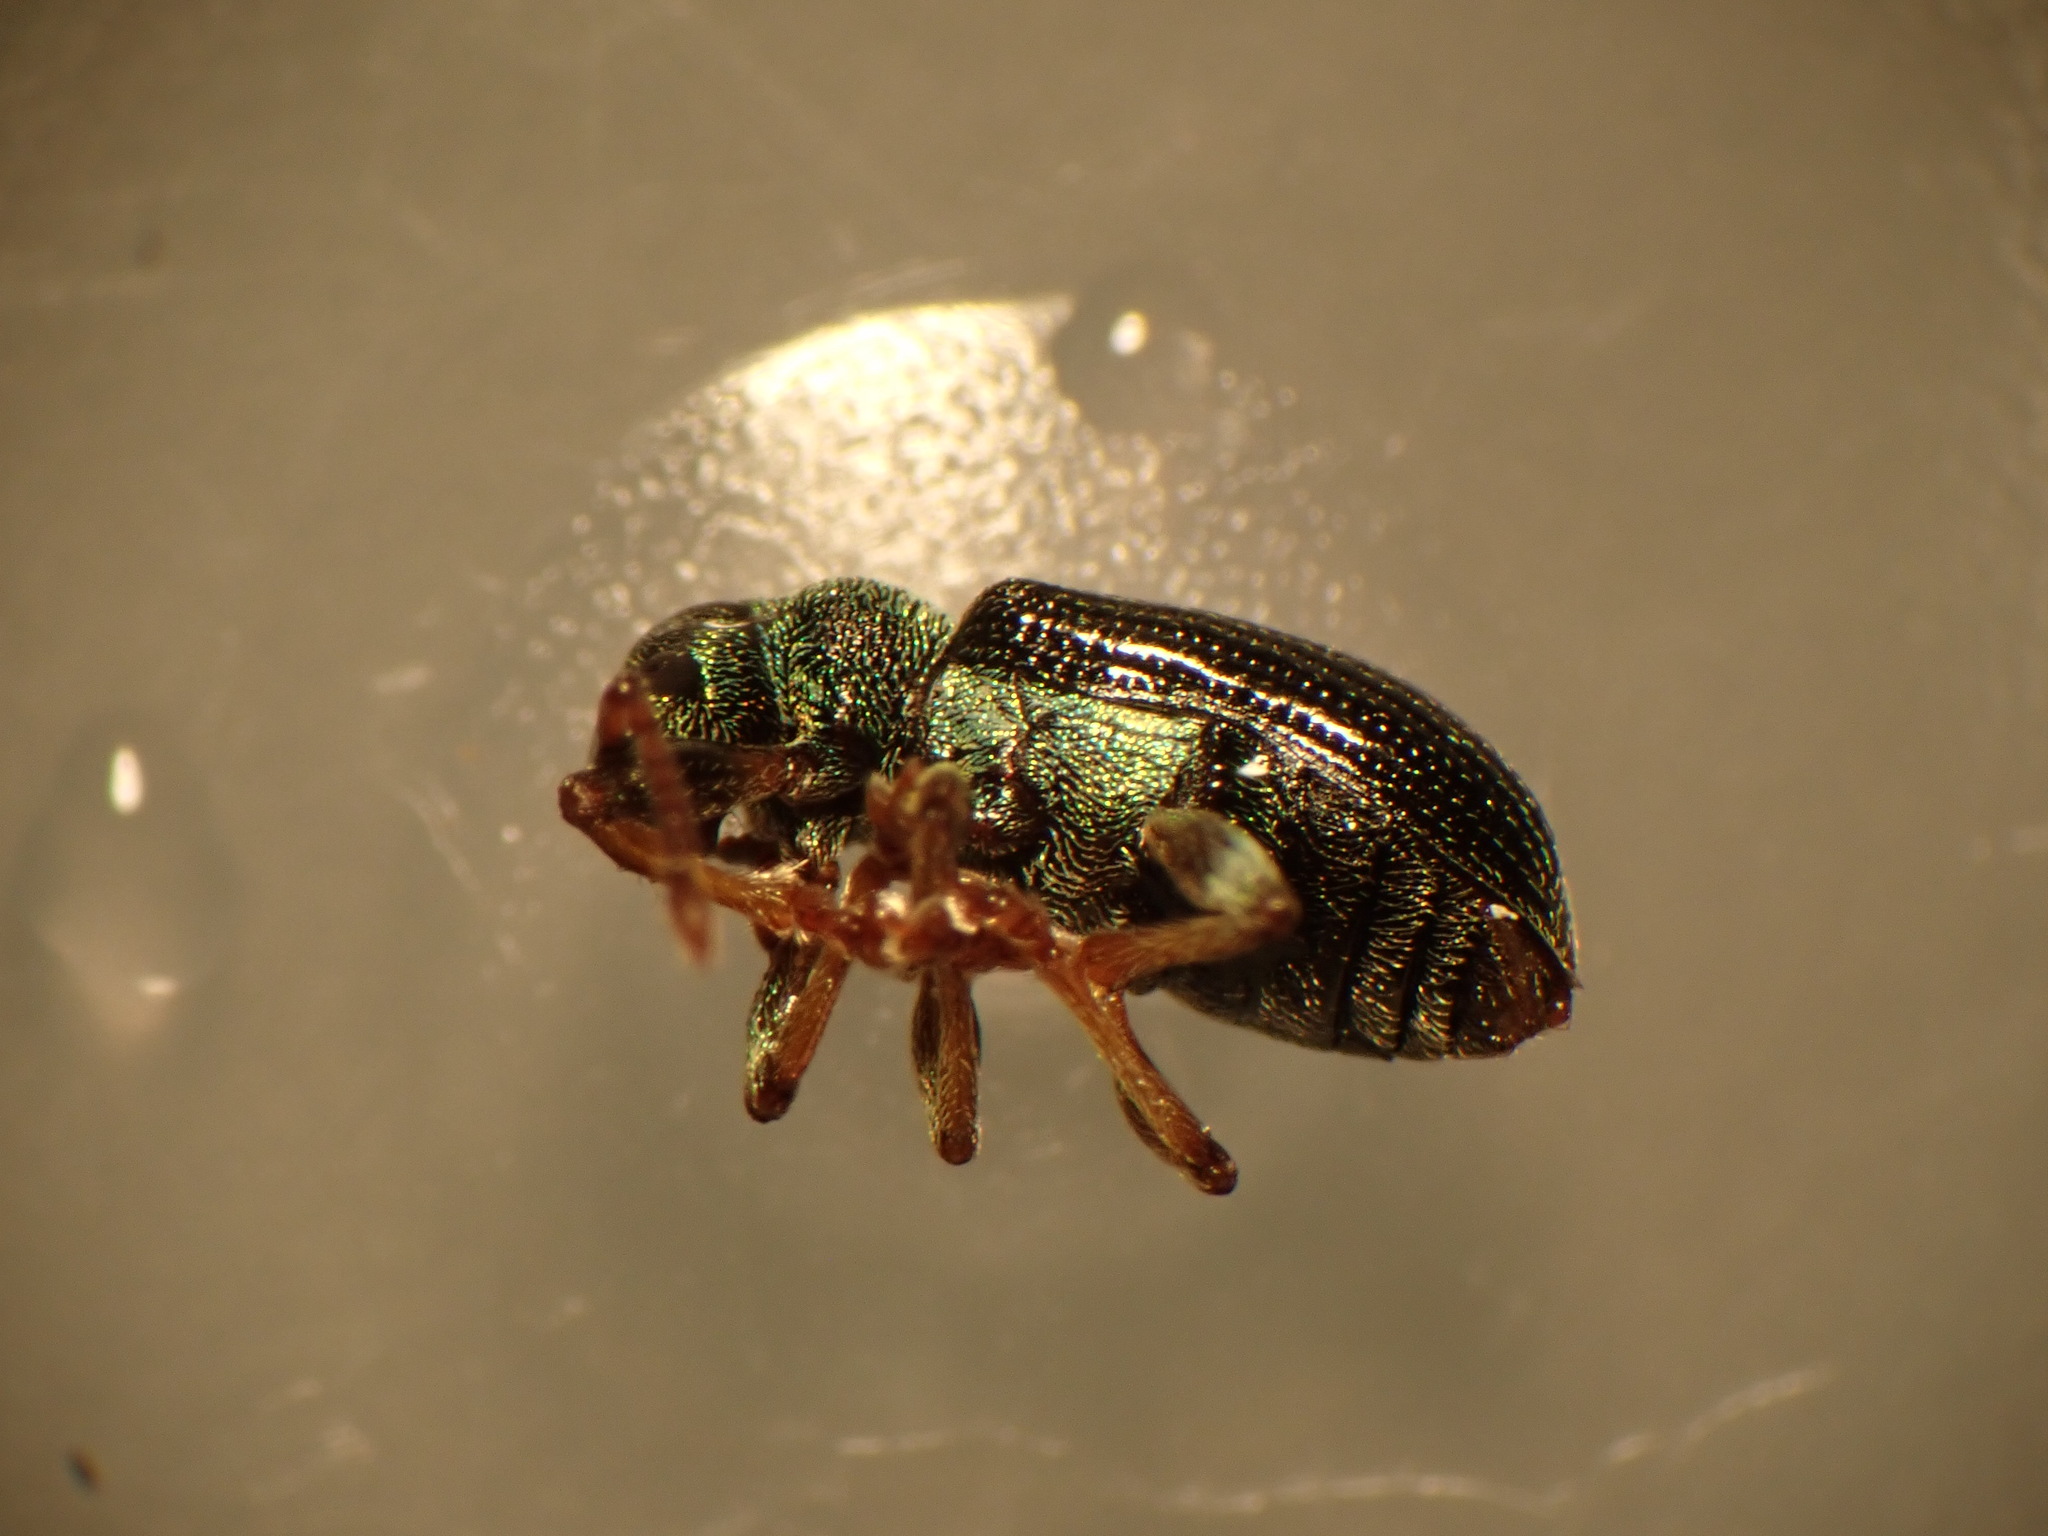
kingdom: Animalia
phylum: Arthropoda
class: Insecta
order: Coleoptera
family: Curculionidae
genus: Phyllobius
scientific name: Phyllobius viridicollis
